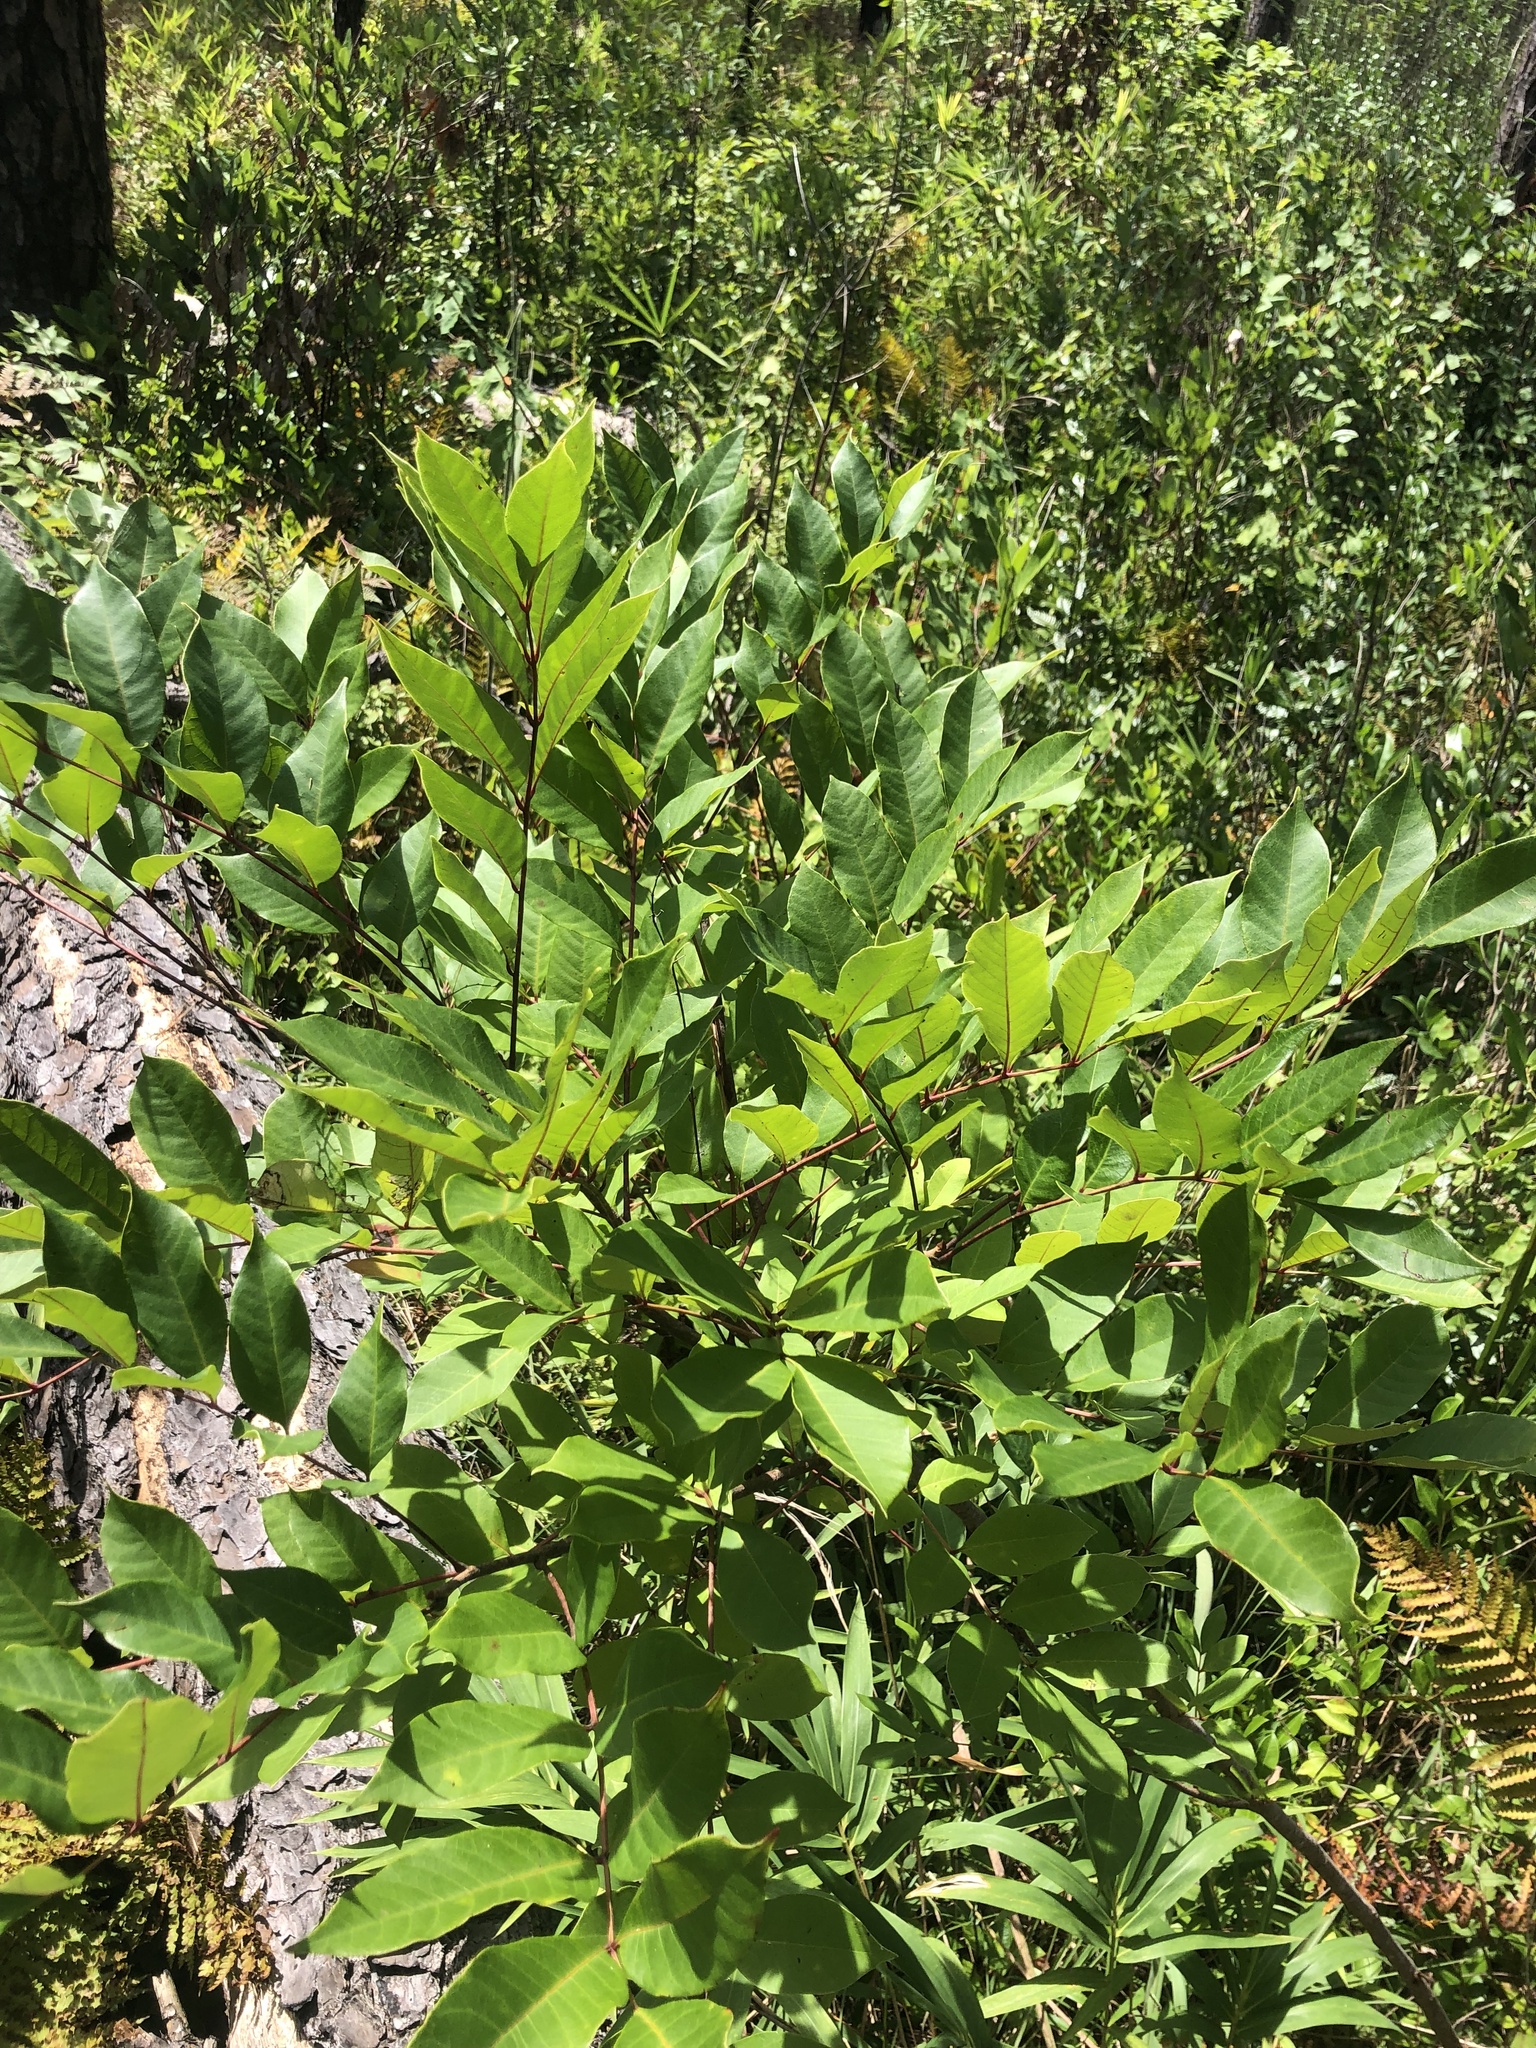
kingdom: Plantae
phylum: Tracheophyta
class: Magnoliopsida
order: Sapindales
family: Anacardiaceae
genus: Toxicodendron
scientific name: Toxicodendron vernix
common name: Poison sumac
